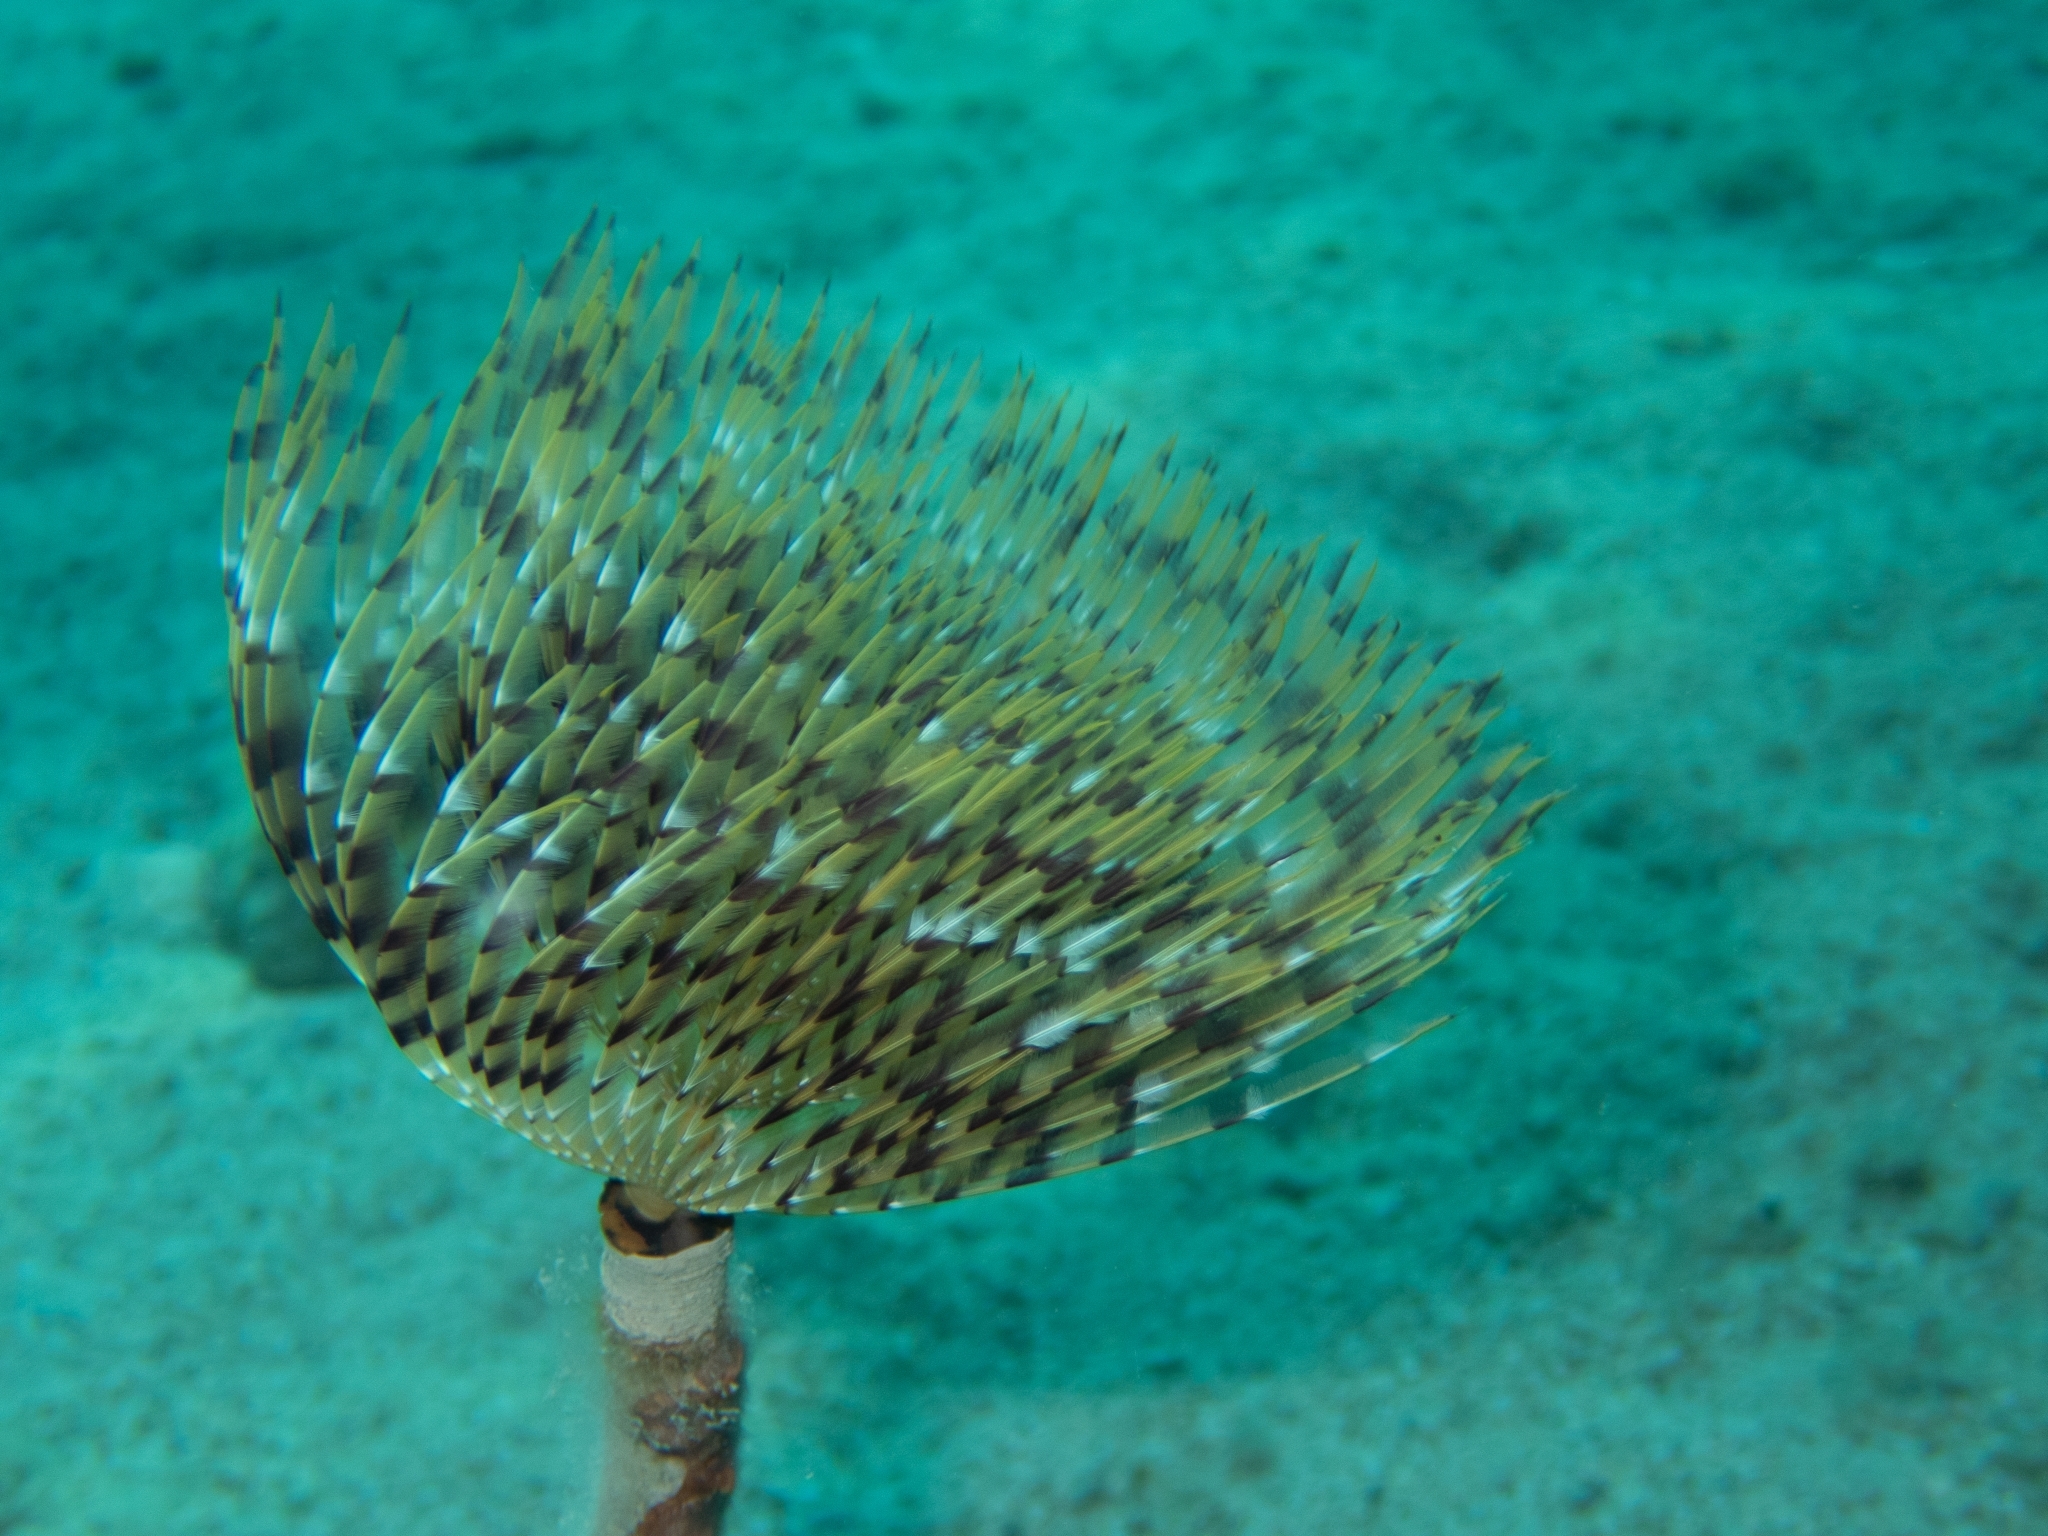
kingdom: Animalia
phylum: Annelida
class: Polychaeta
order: Sabellida
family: Sabellidae
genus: Sabella
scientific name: Sabella spallanzanii
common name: Feather duster worm
